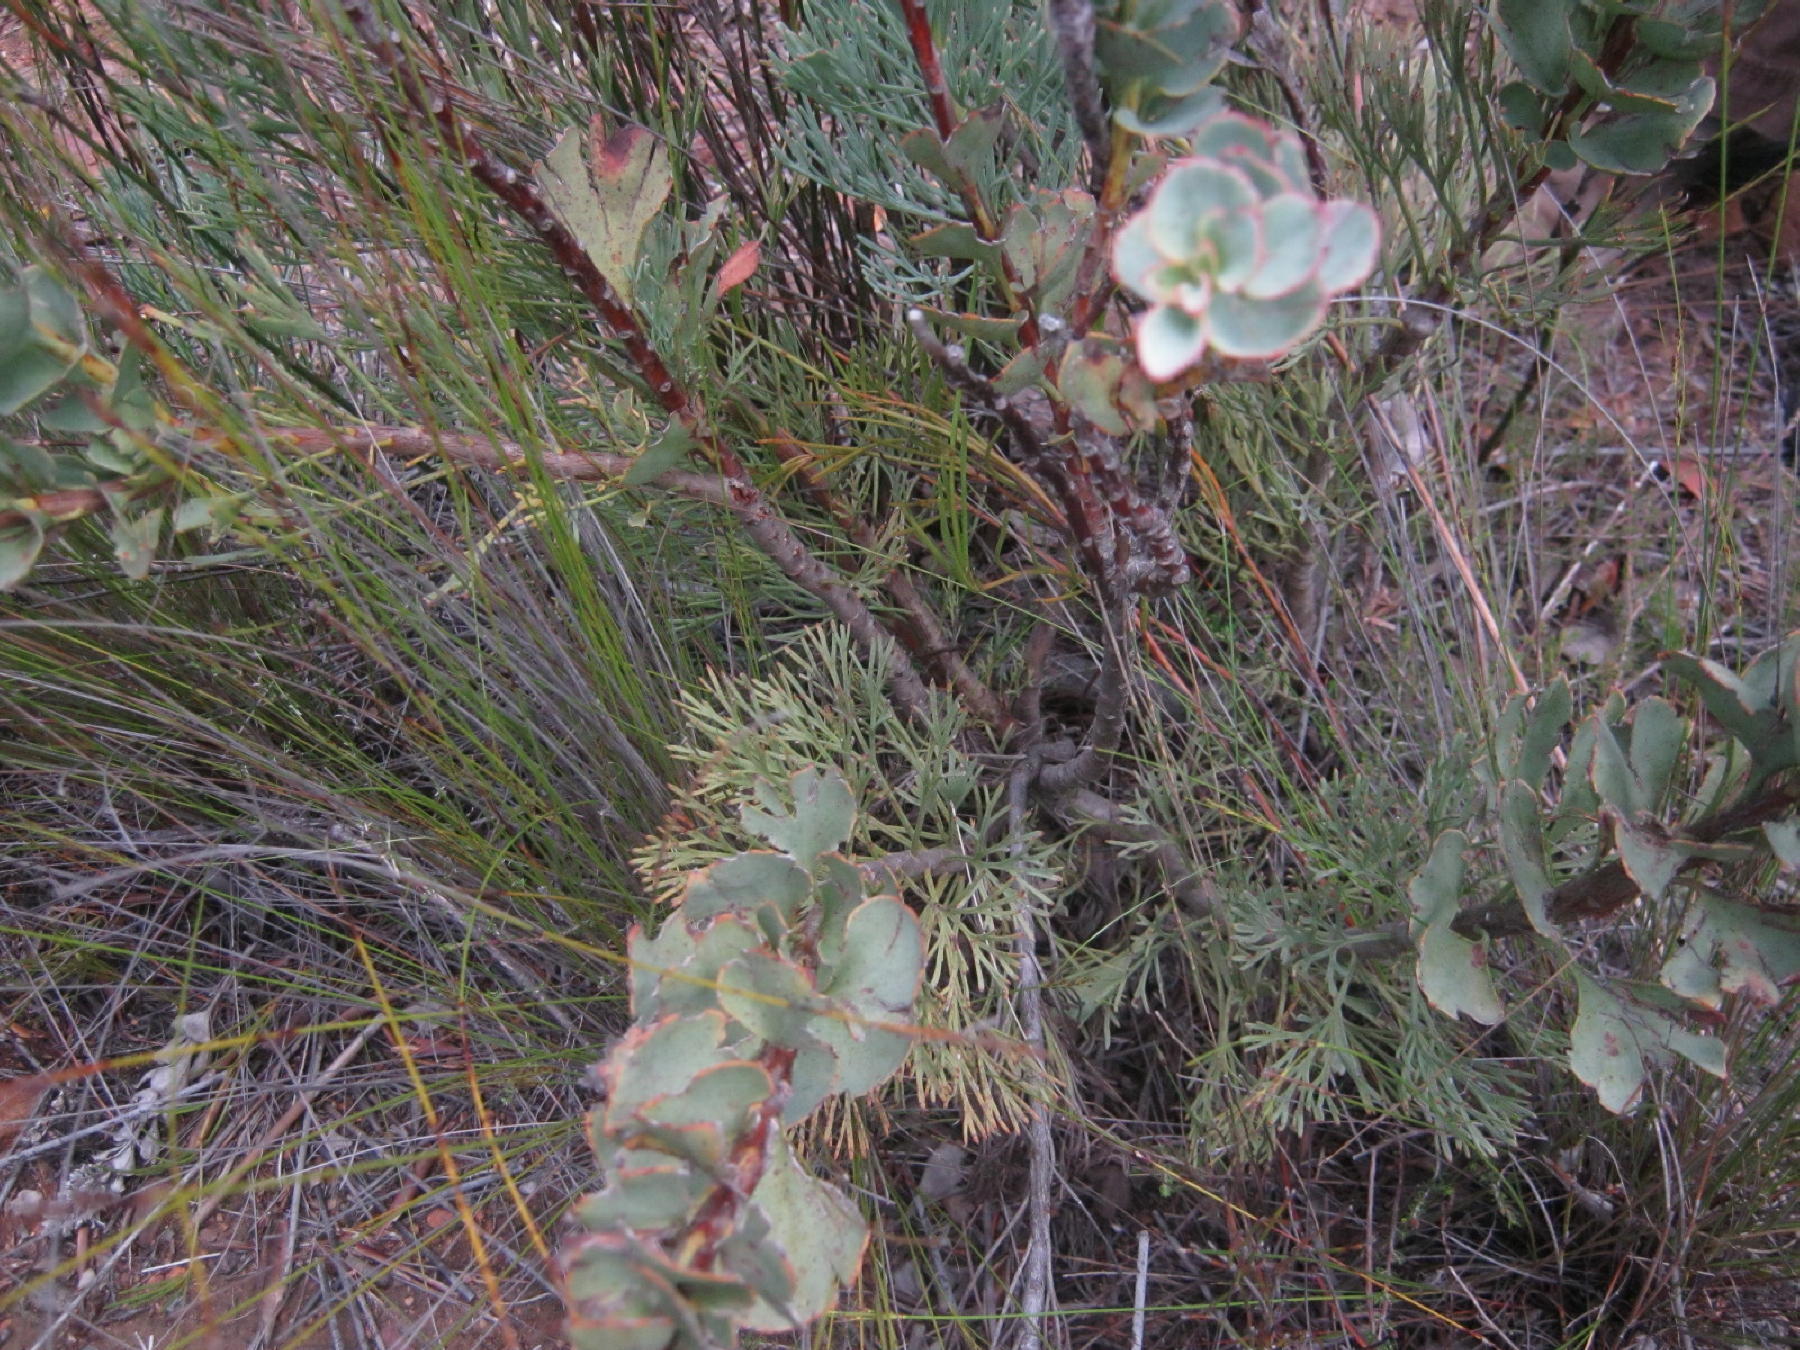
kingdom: Plantae
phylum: Tracheophyta
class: Magnoliopsida
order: Proteales
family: Proteaceae
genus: Paranomus
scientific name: Paranomus spathulatus
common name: Langeberg sceptre
